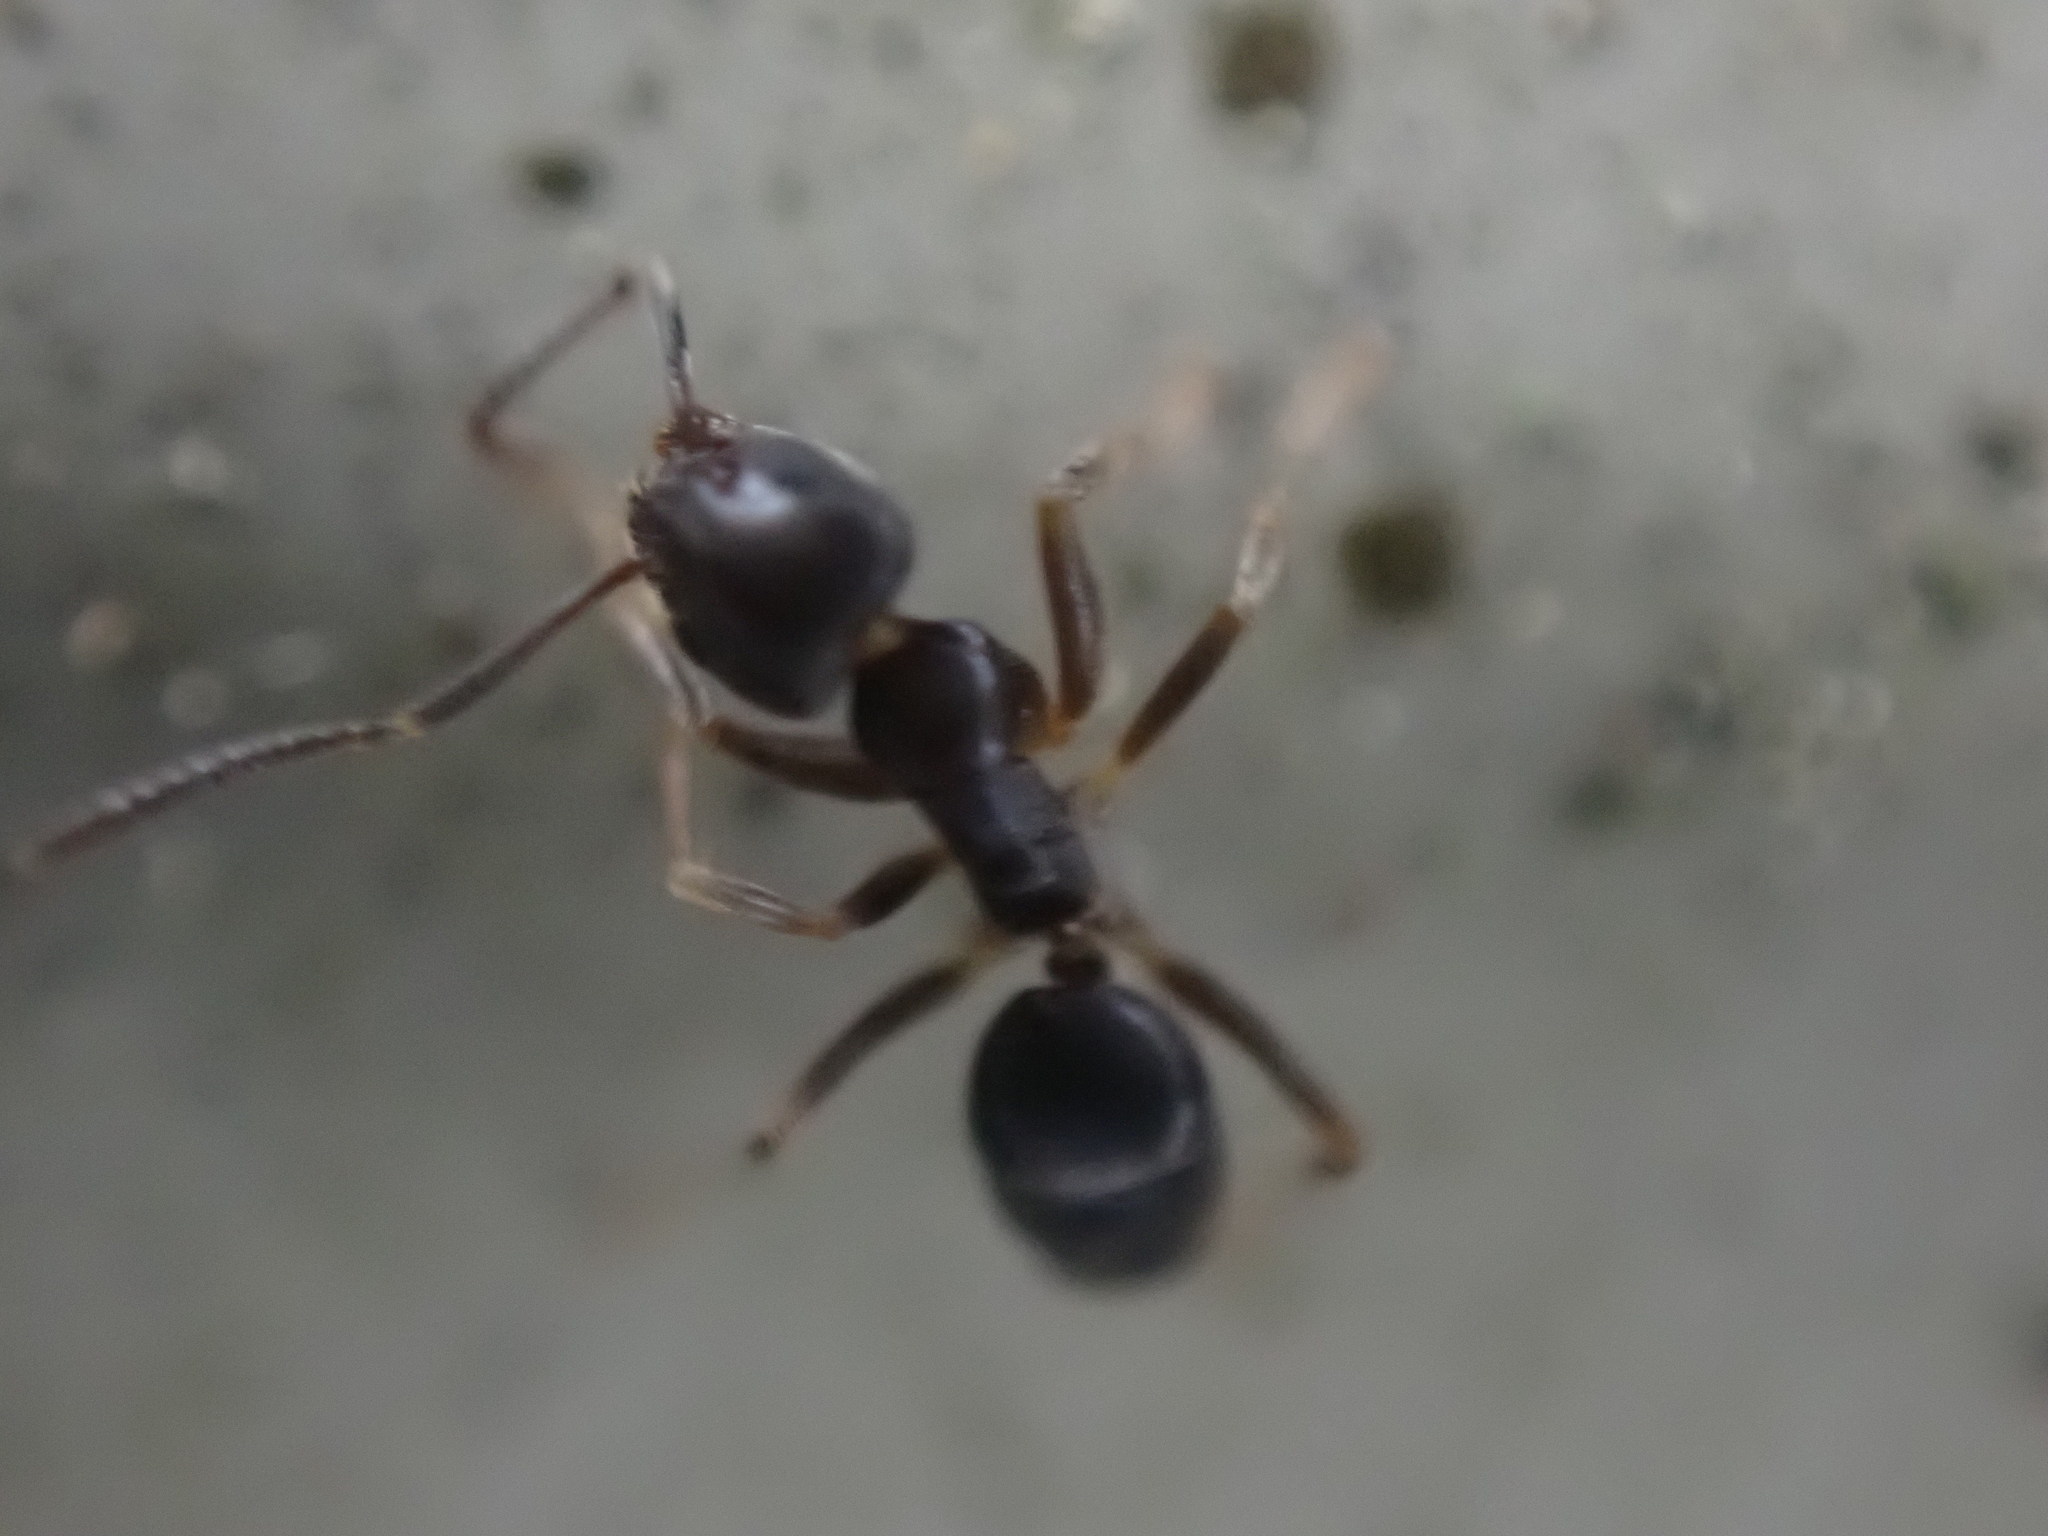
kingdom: Animalia
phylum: Arthropoda
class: Insecta
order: Hymenoptera
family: Formicidae
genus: Tapinoma
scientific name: Tapinoma sessile
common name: Odorous house ant
